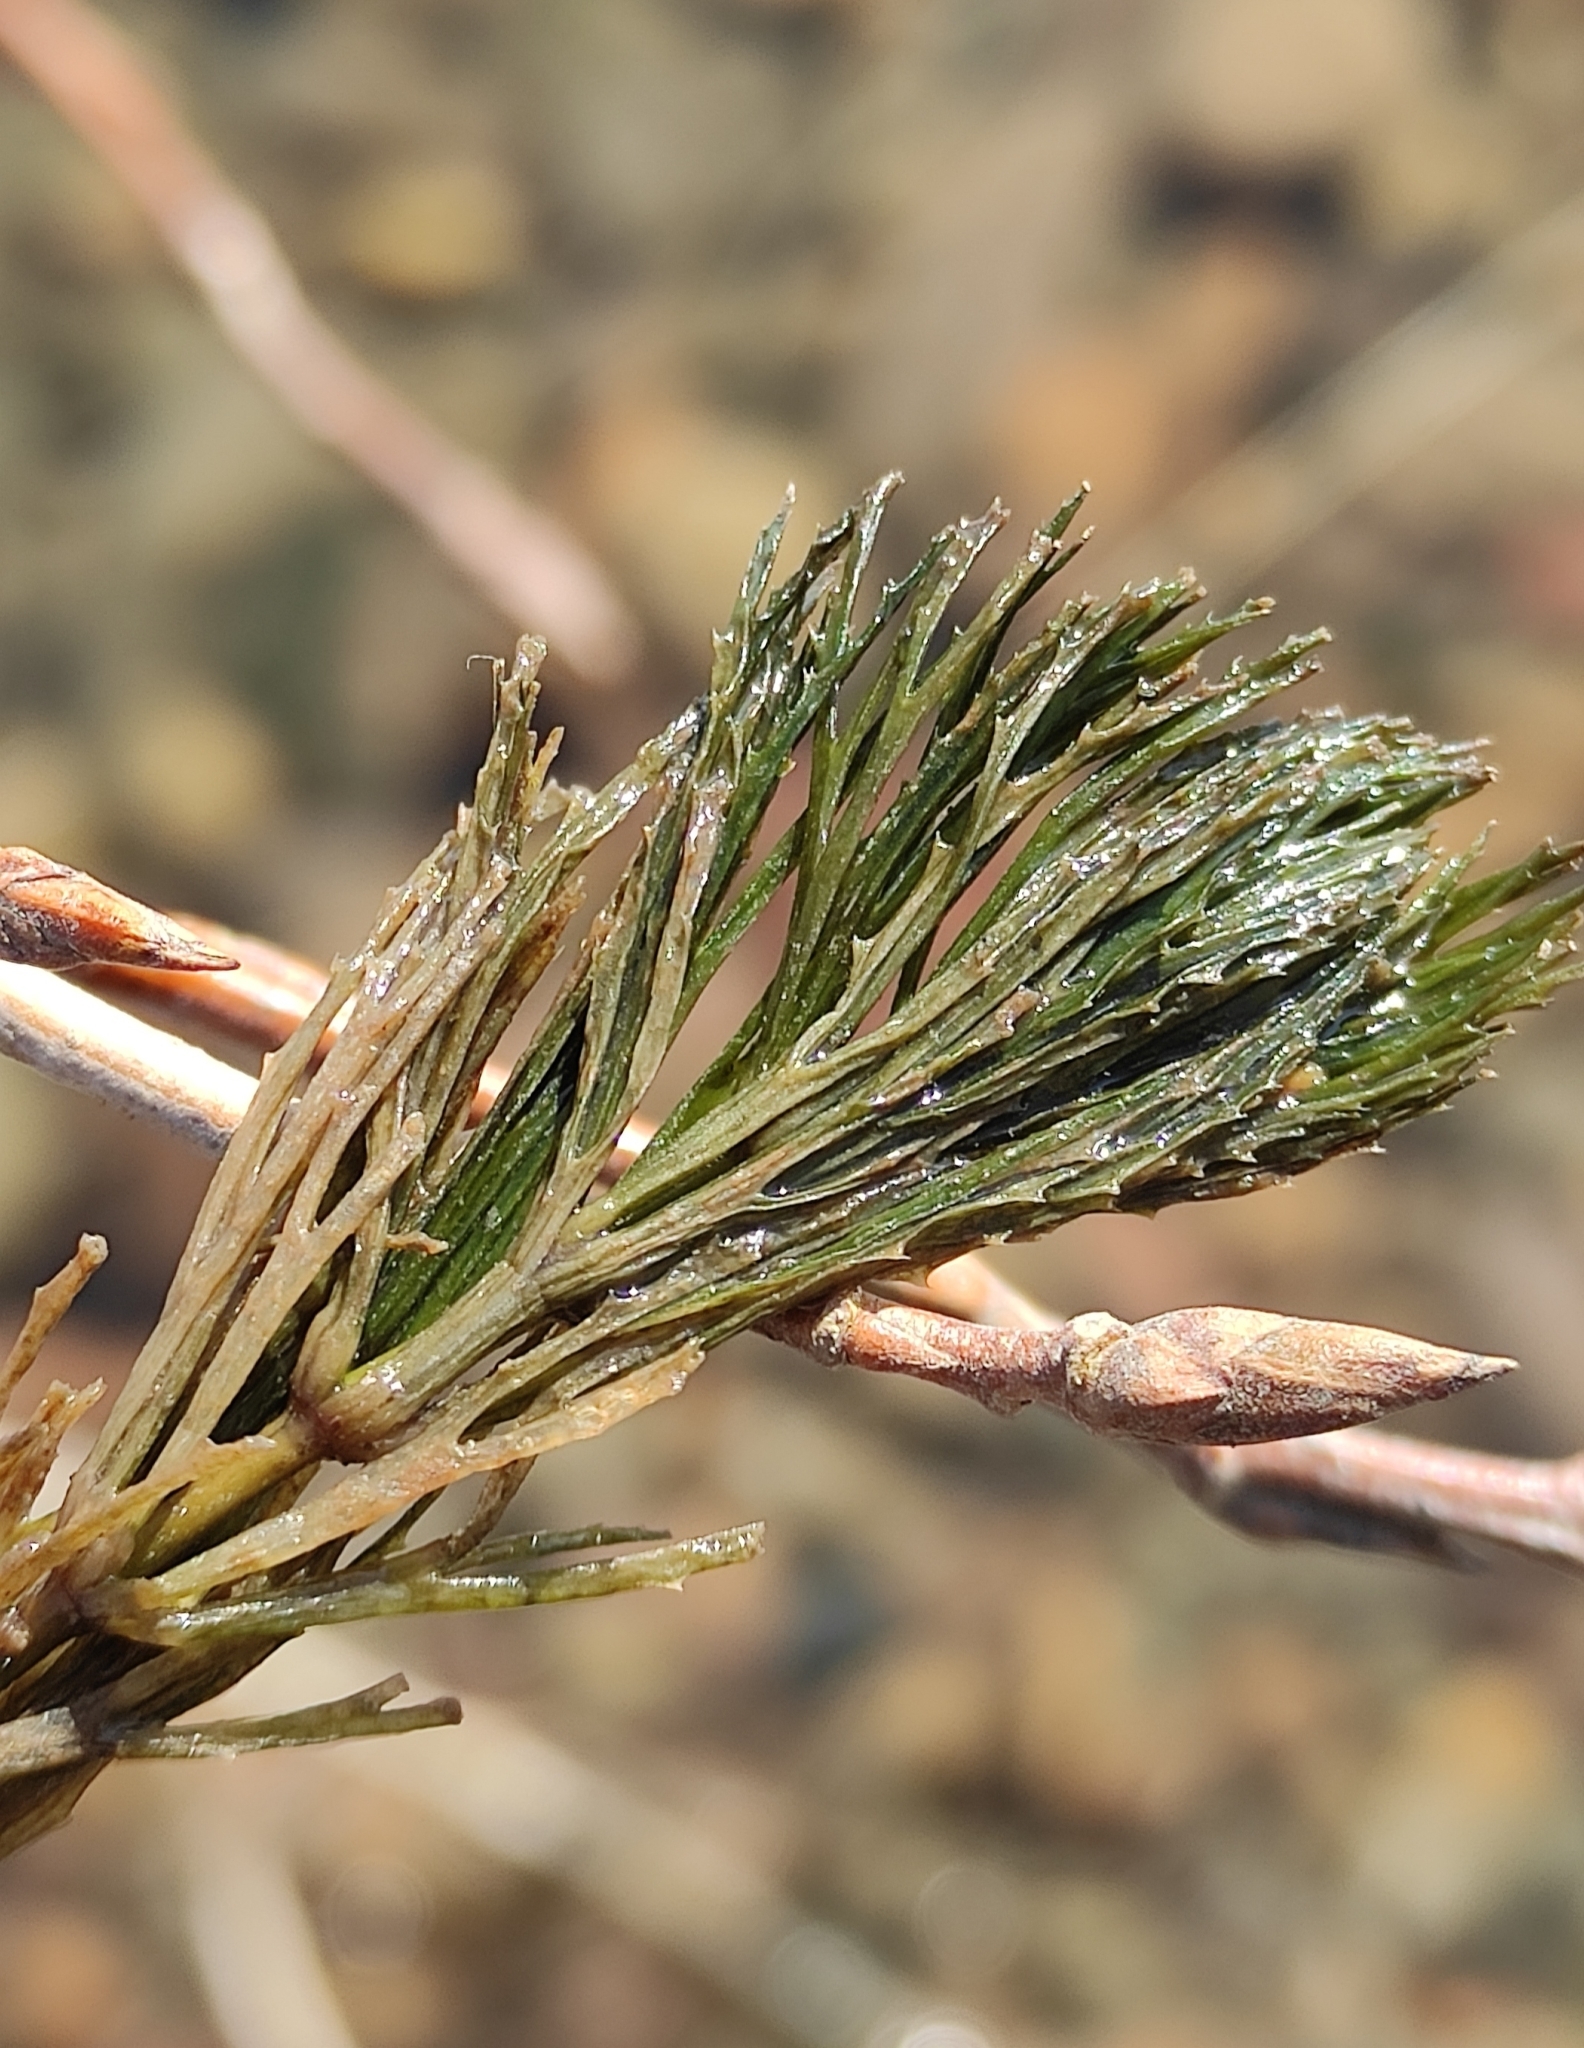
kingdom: Plantae
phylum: Tracheophyta
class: Magnoliopsida
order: Ceratophyllales
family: Ceratophyllaceae
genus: Ceratophyllum
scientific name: Ceratophyllum demersum
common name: Rigid hornwort
